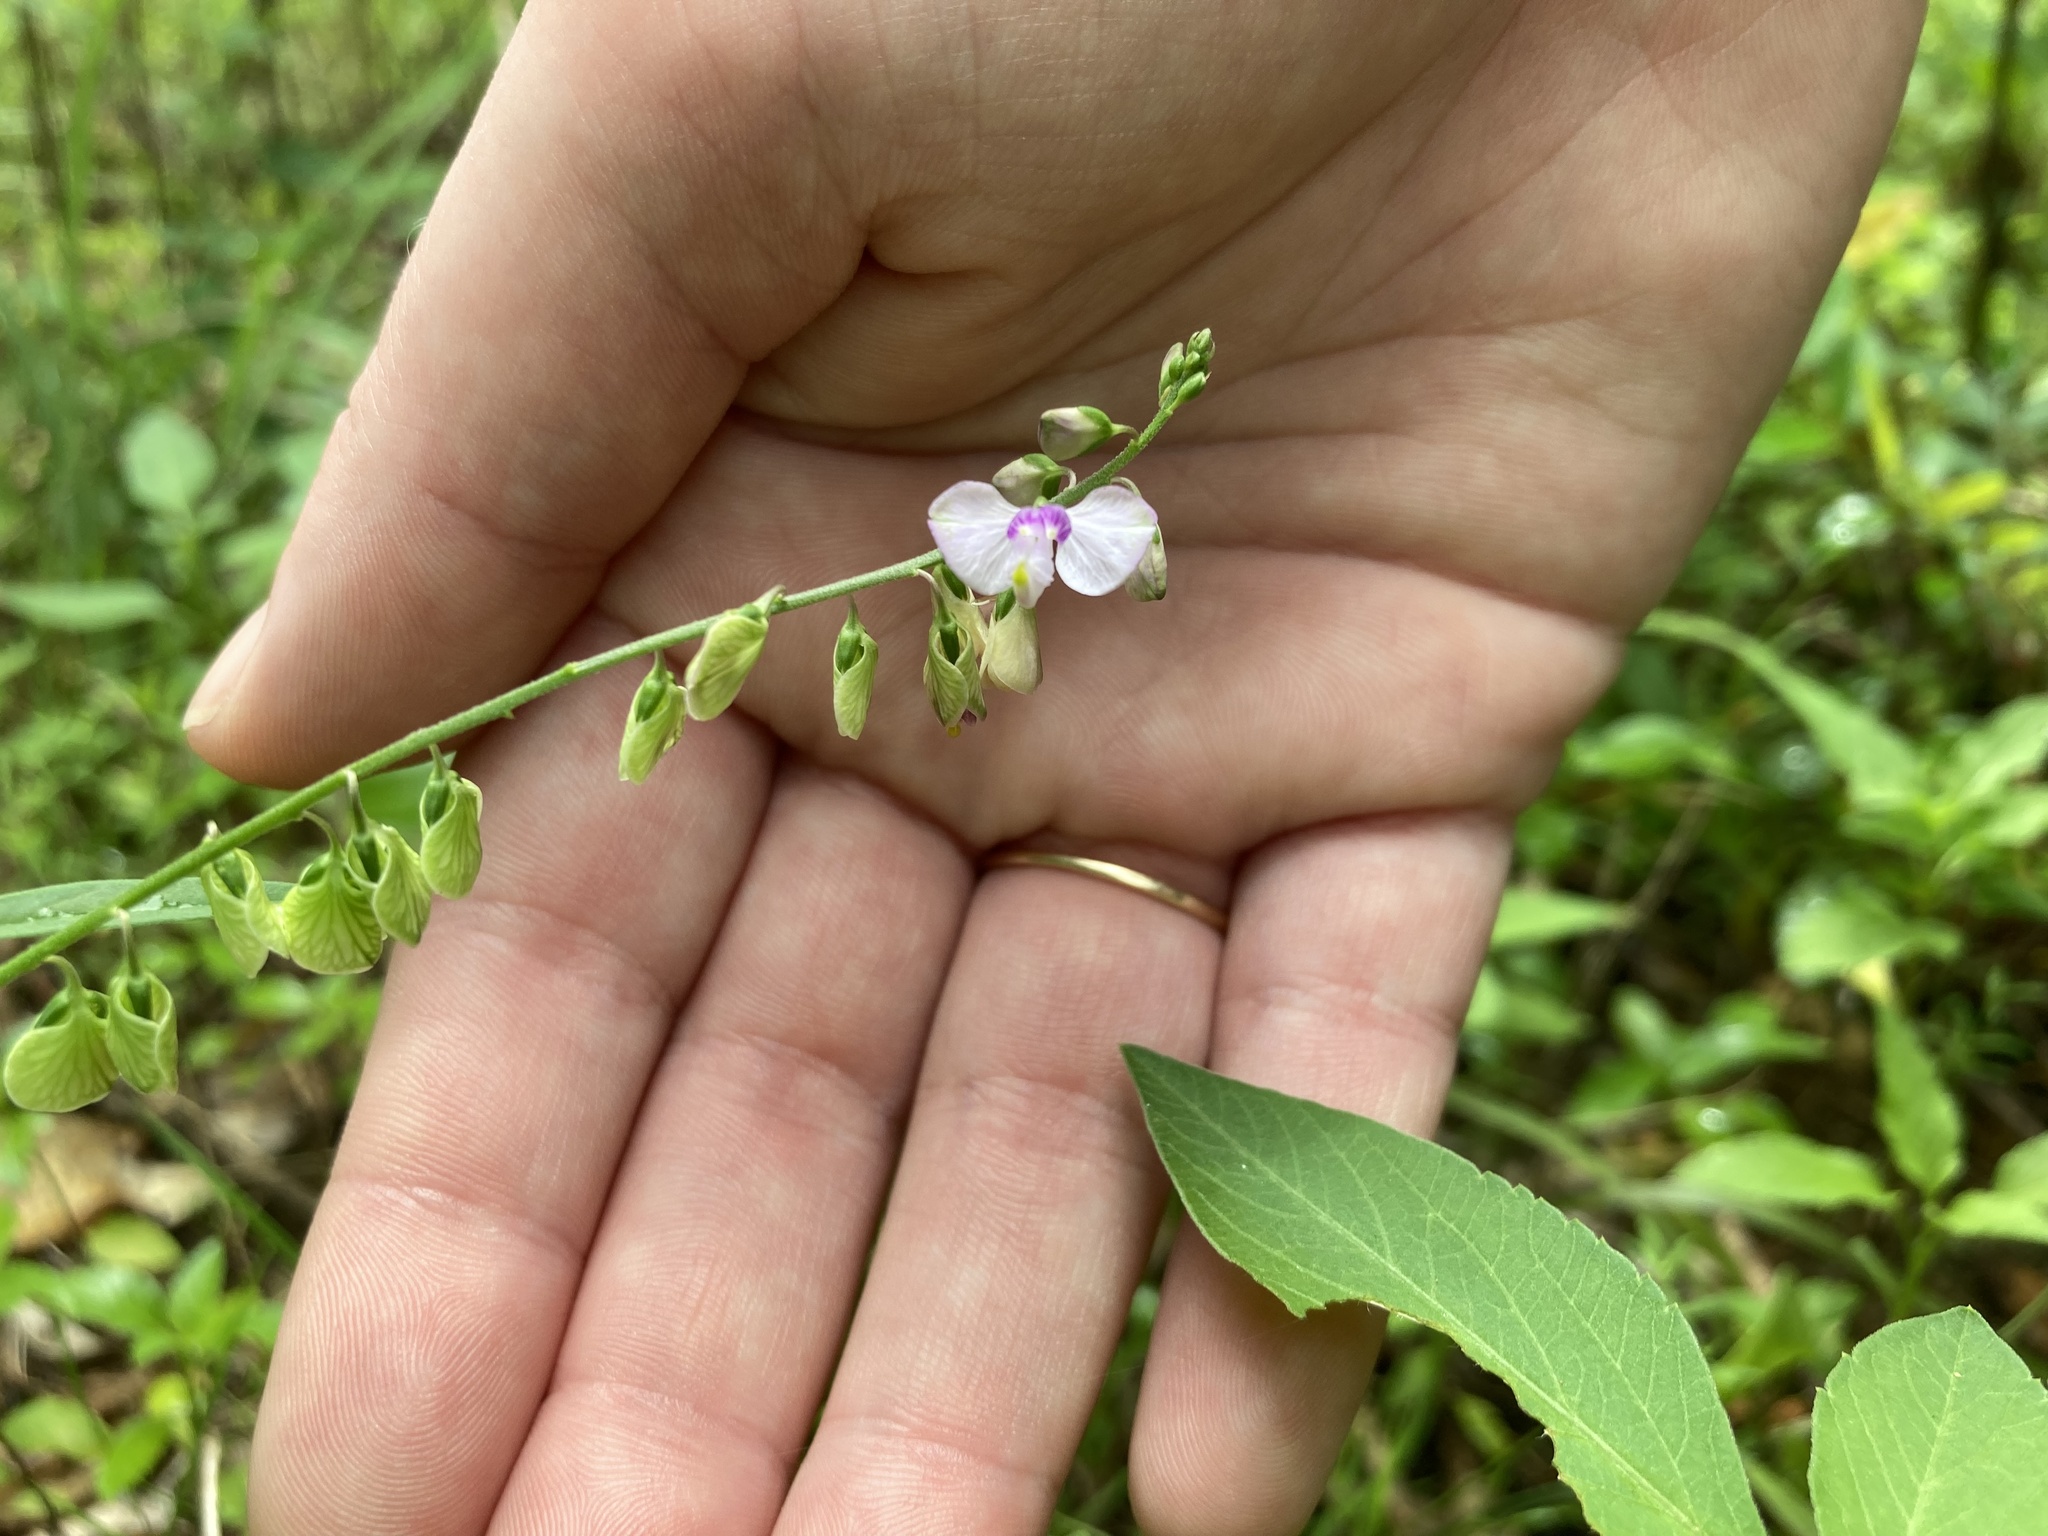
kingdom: Plantae
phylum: Tracheophyta
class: Magnoliopsida
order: Fabales
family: Polygalaceae
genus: Asemeia
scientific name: Asemeia grandiflora
